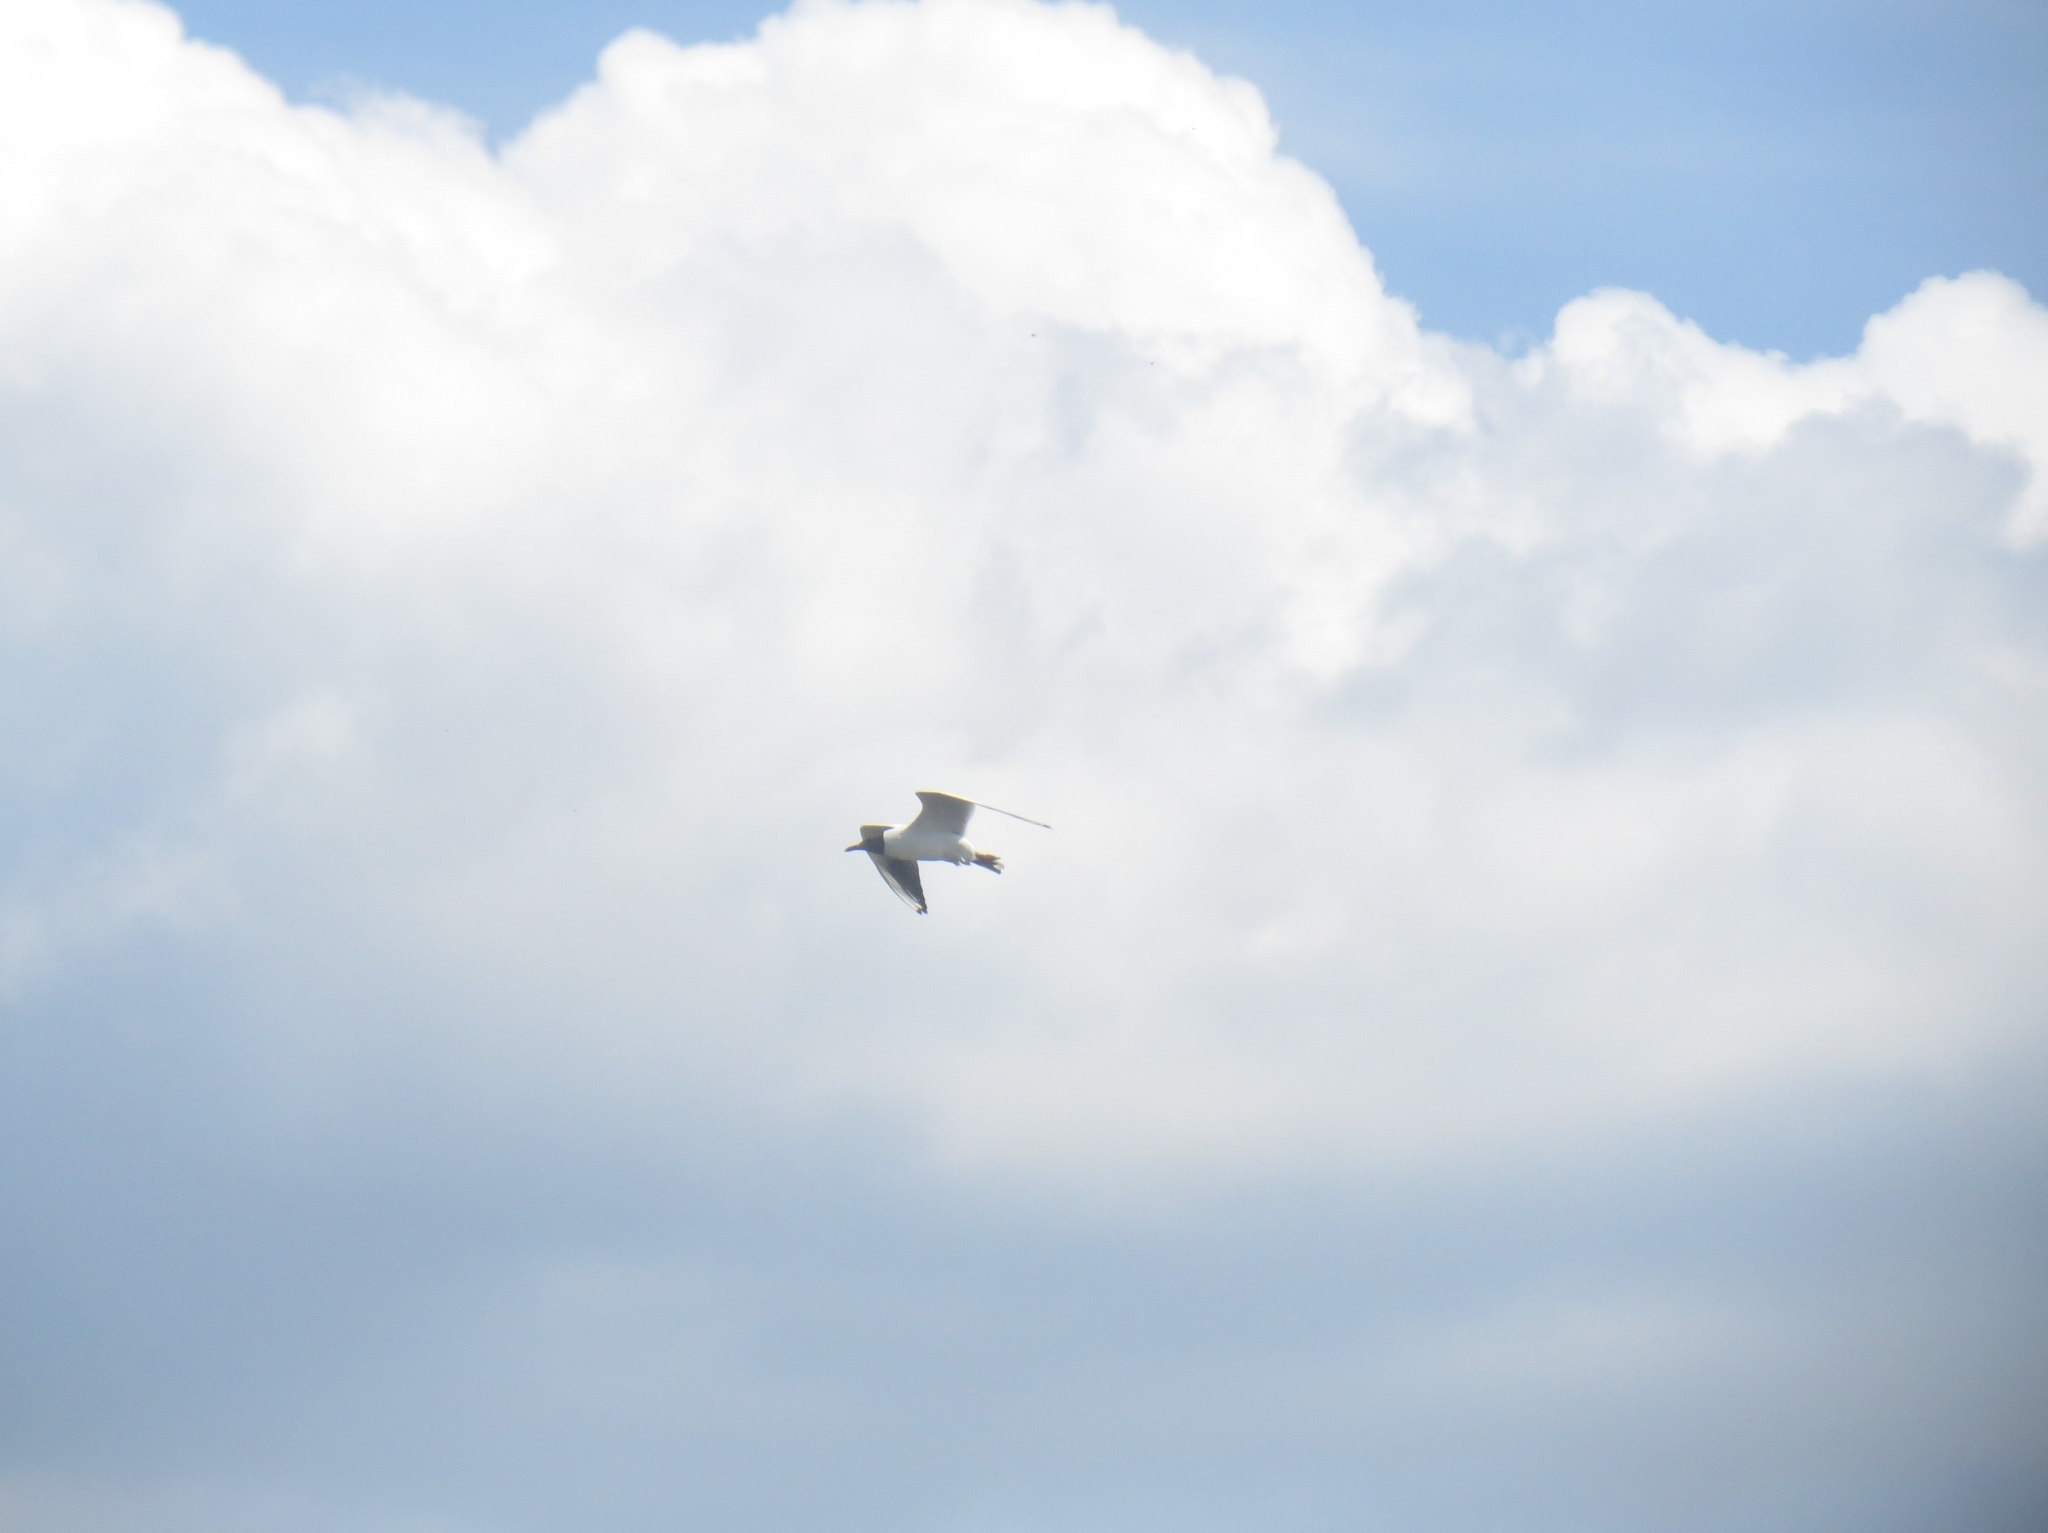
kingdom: Animalia
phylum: Chordata
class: Aves
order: Charadriiformes
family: Laridae
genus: Chroicocephalus
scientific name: Chroicocephalus ridibundus
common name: Black-headed gull
